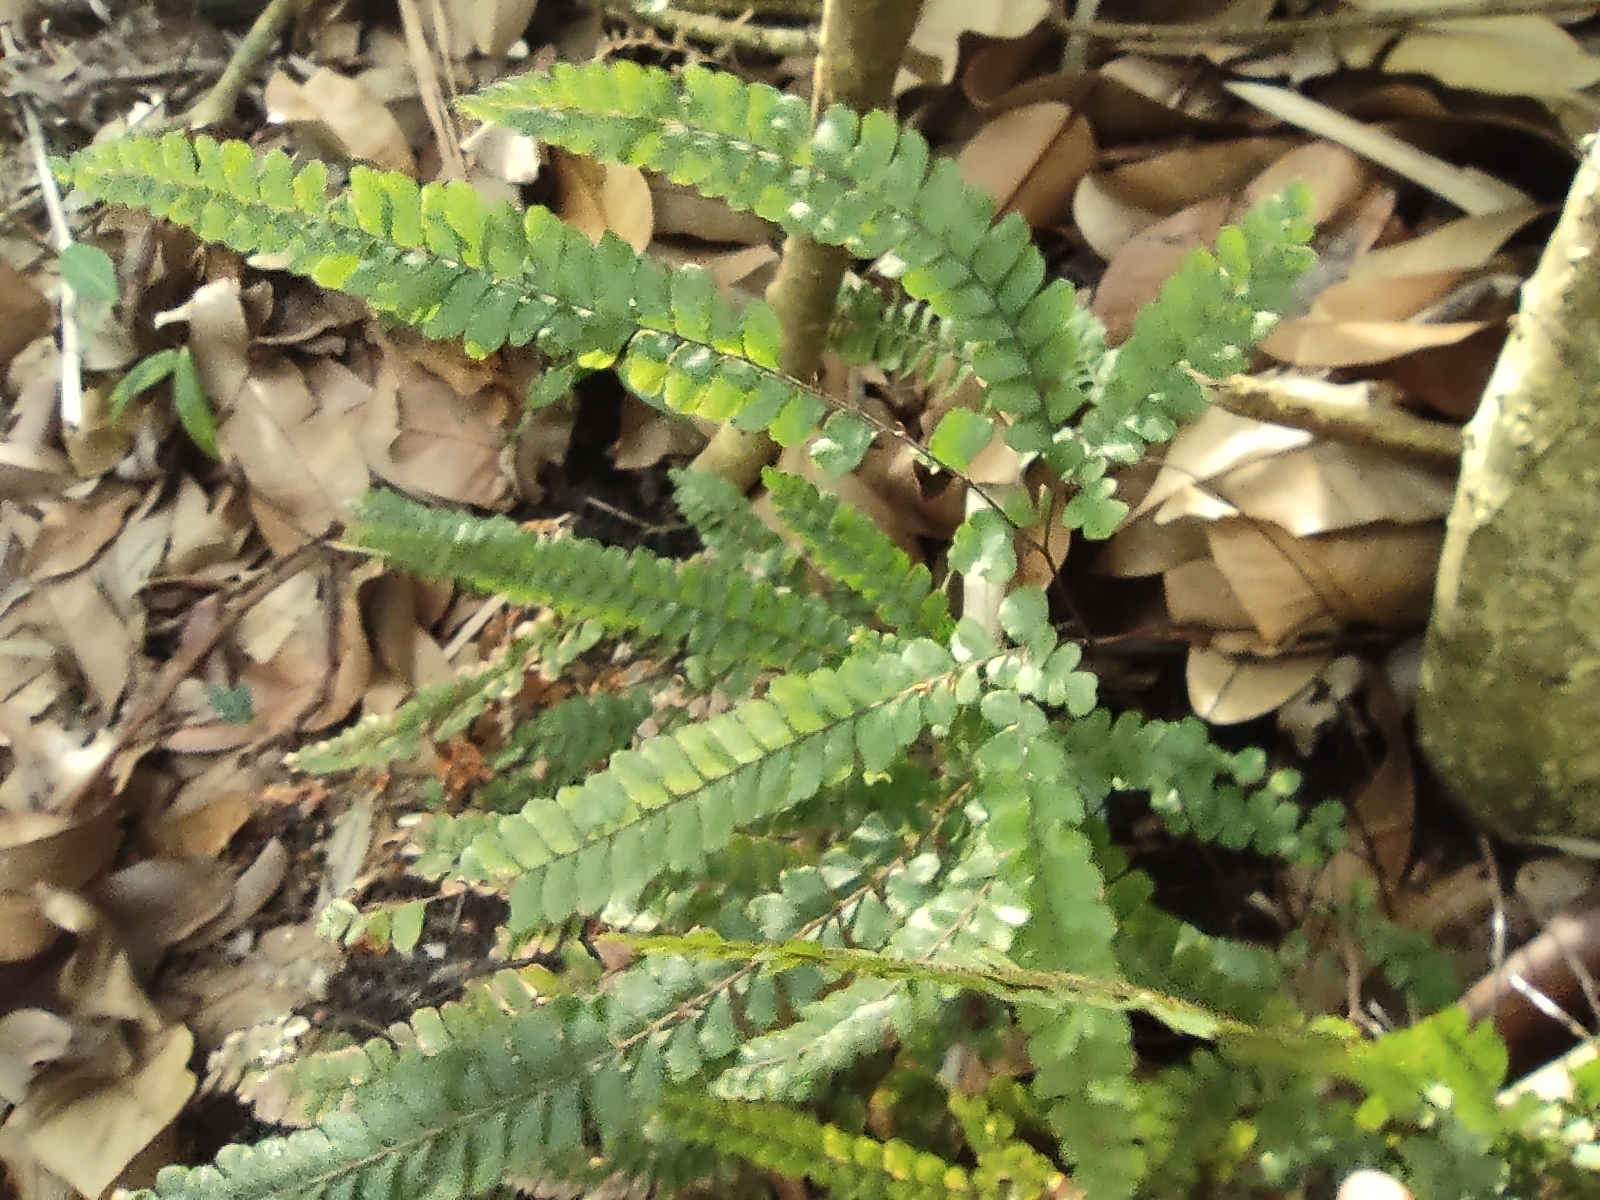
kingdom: Plantae
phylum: Tracheophyta
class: Polypodiopsida
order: Polypodiales
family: Pteridaceae
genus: Adiantum
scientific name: Adiantum hispidulum
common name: Rough maidenhair
